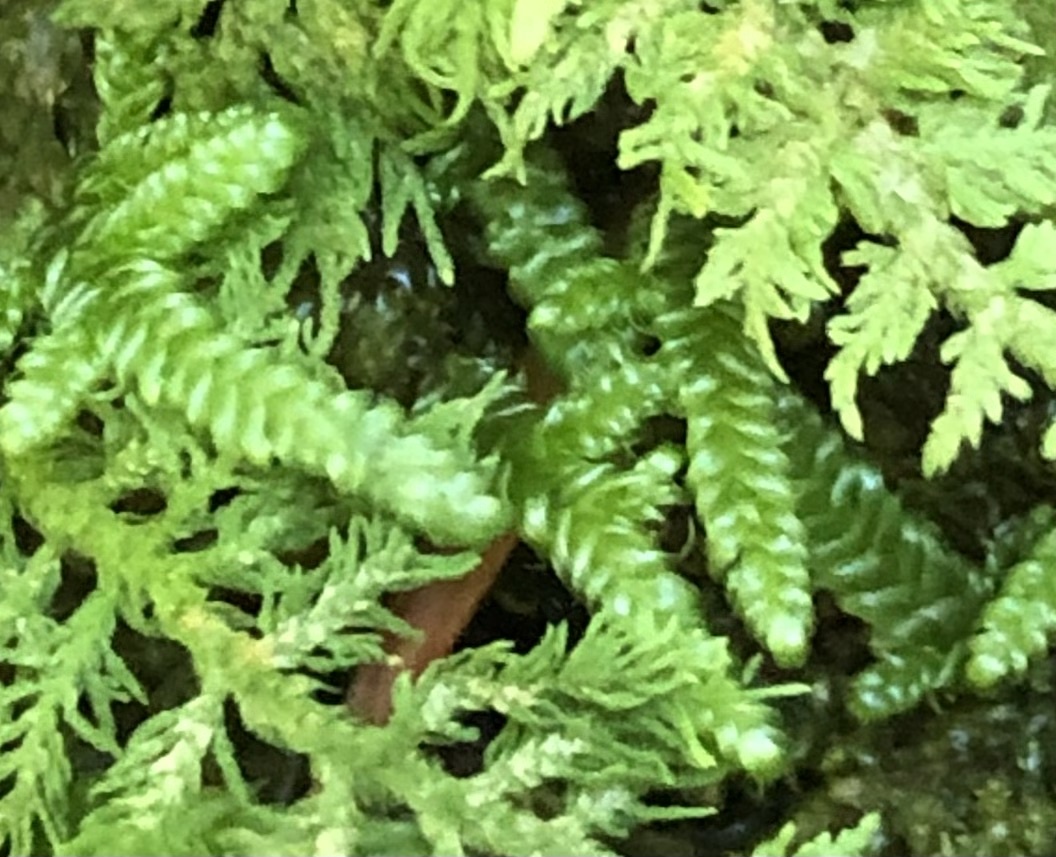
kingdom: Plantae
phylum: Bryophyta
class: Bryopsida
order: Hypnales
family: Callicladiaceae
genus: Callicladium
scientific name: Callicladium imponens
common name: Brocade moss
